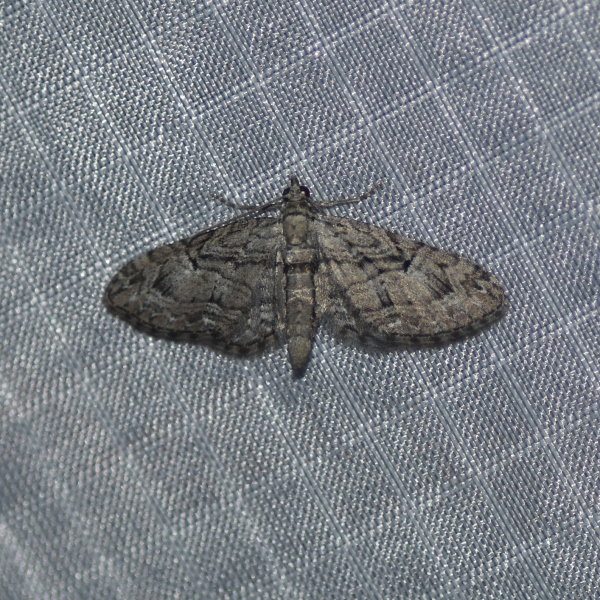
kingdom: Animalia
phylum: Arthropoda
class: Insecta
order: Lepidoptera
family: Geometridae
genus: Eupithecia
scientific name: Eupithecia interruptofasciata
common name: Juniper looper moth
